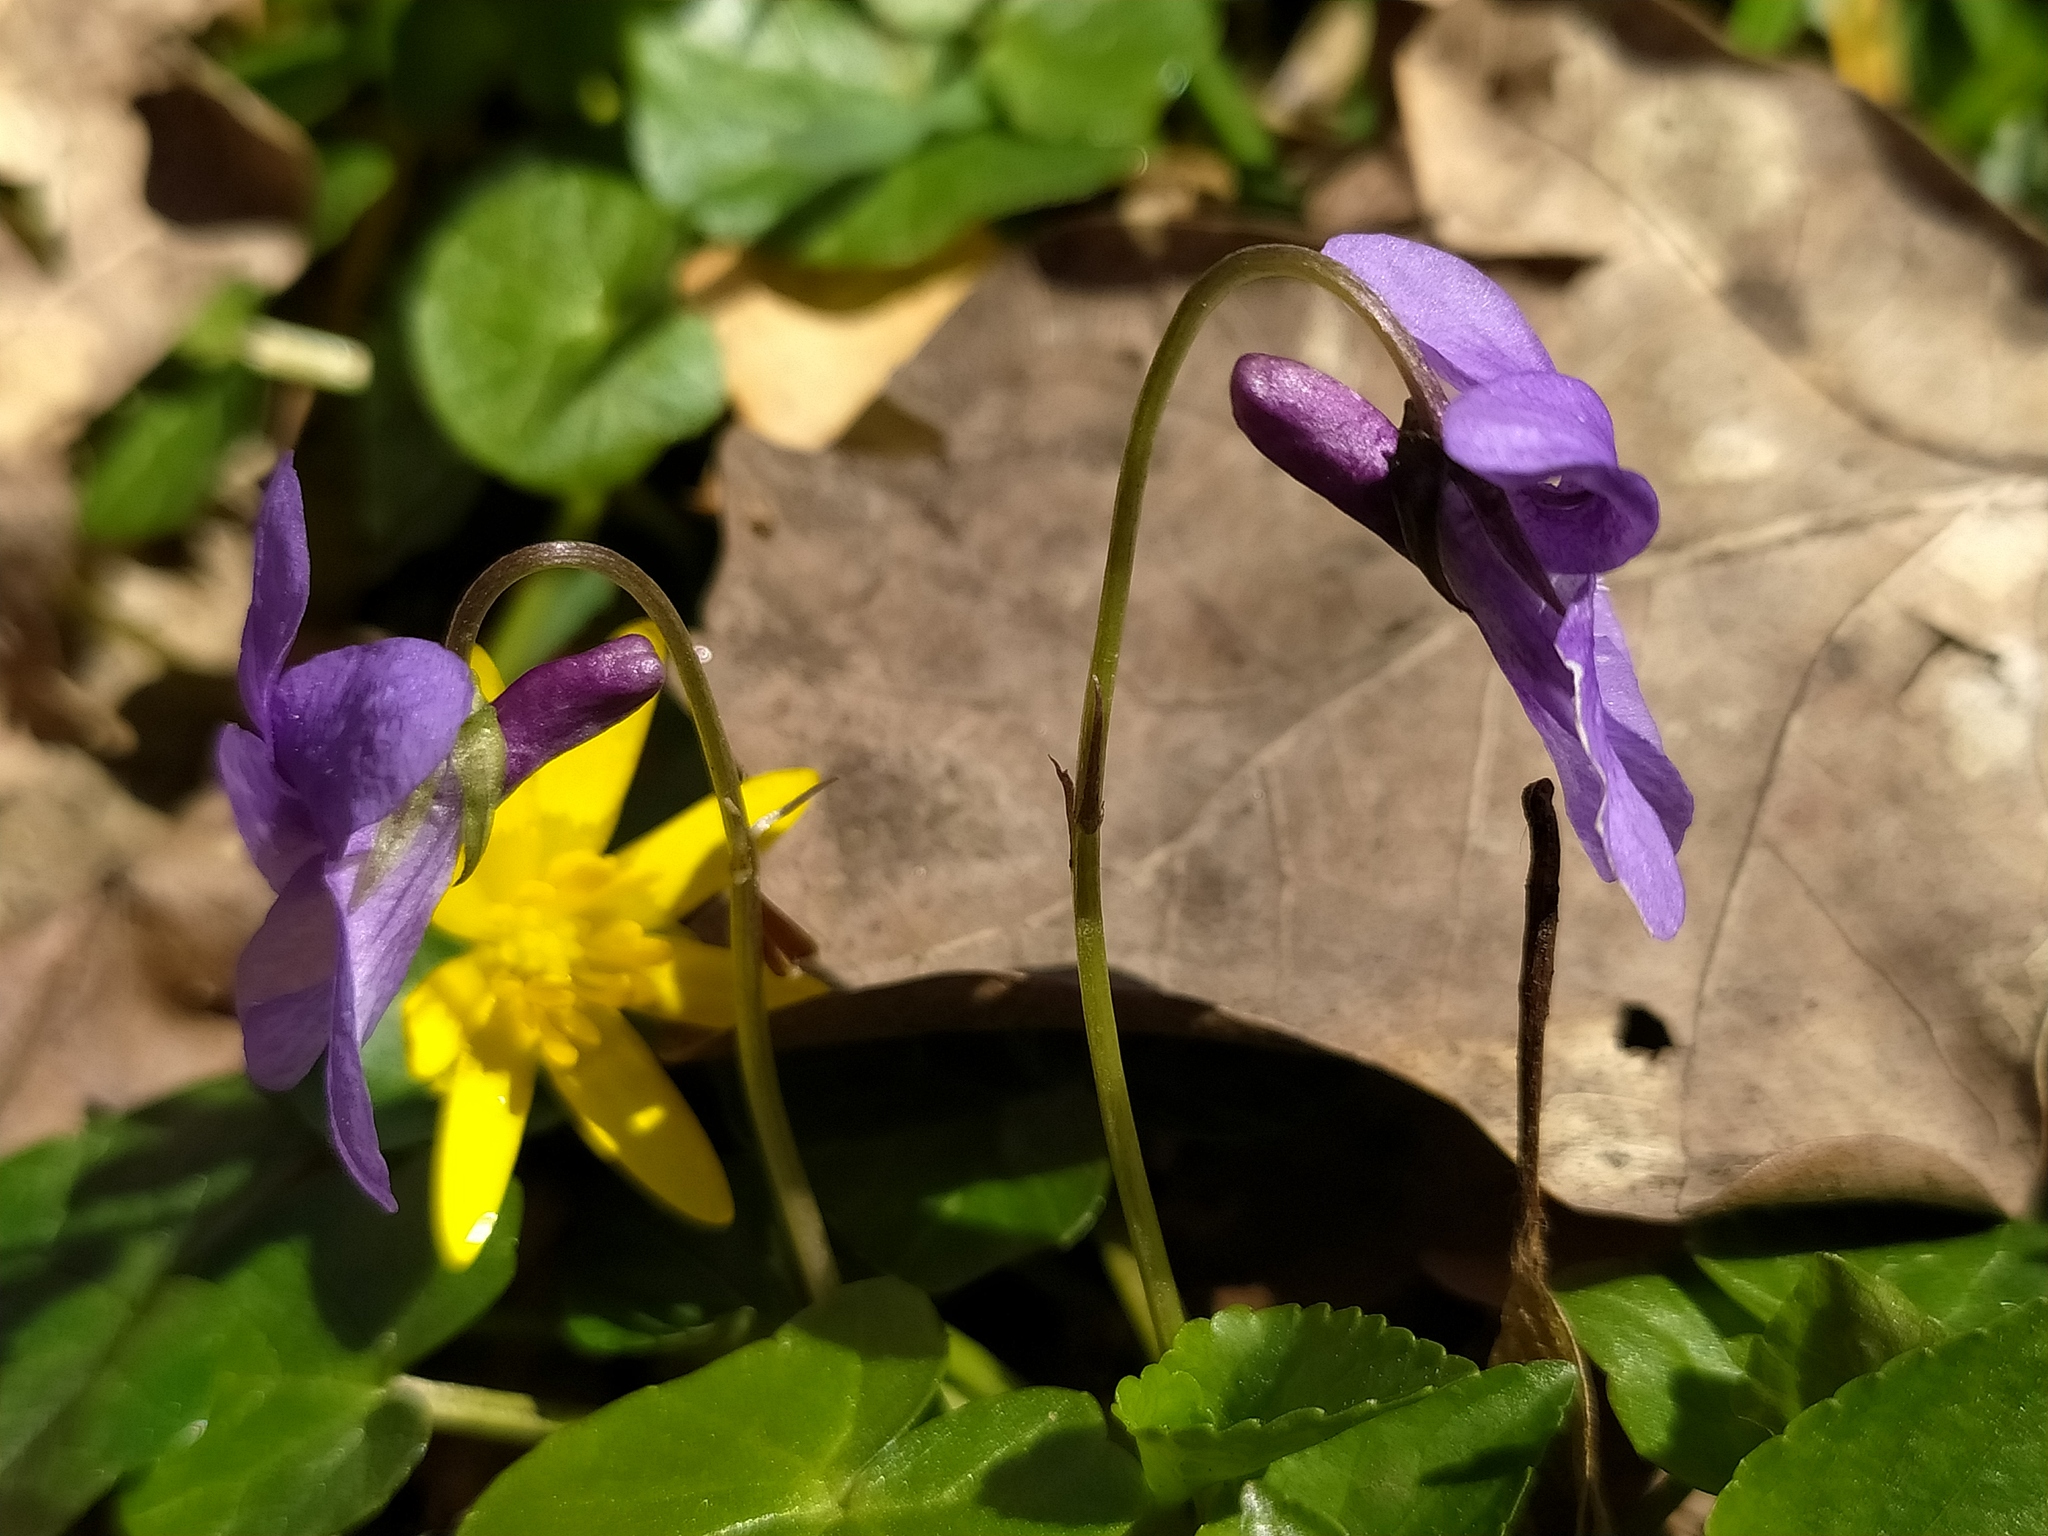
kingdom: Plantae
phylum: Tracheophyta
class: Magnoliopsida
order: Malpighiales
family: Violaceae
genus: Viola
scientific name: Viola reichenbachiana
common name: Early dog-violet
